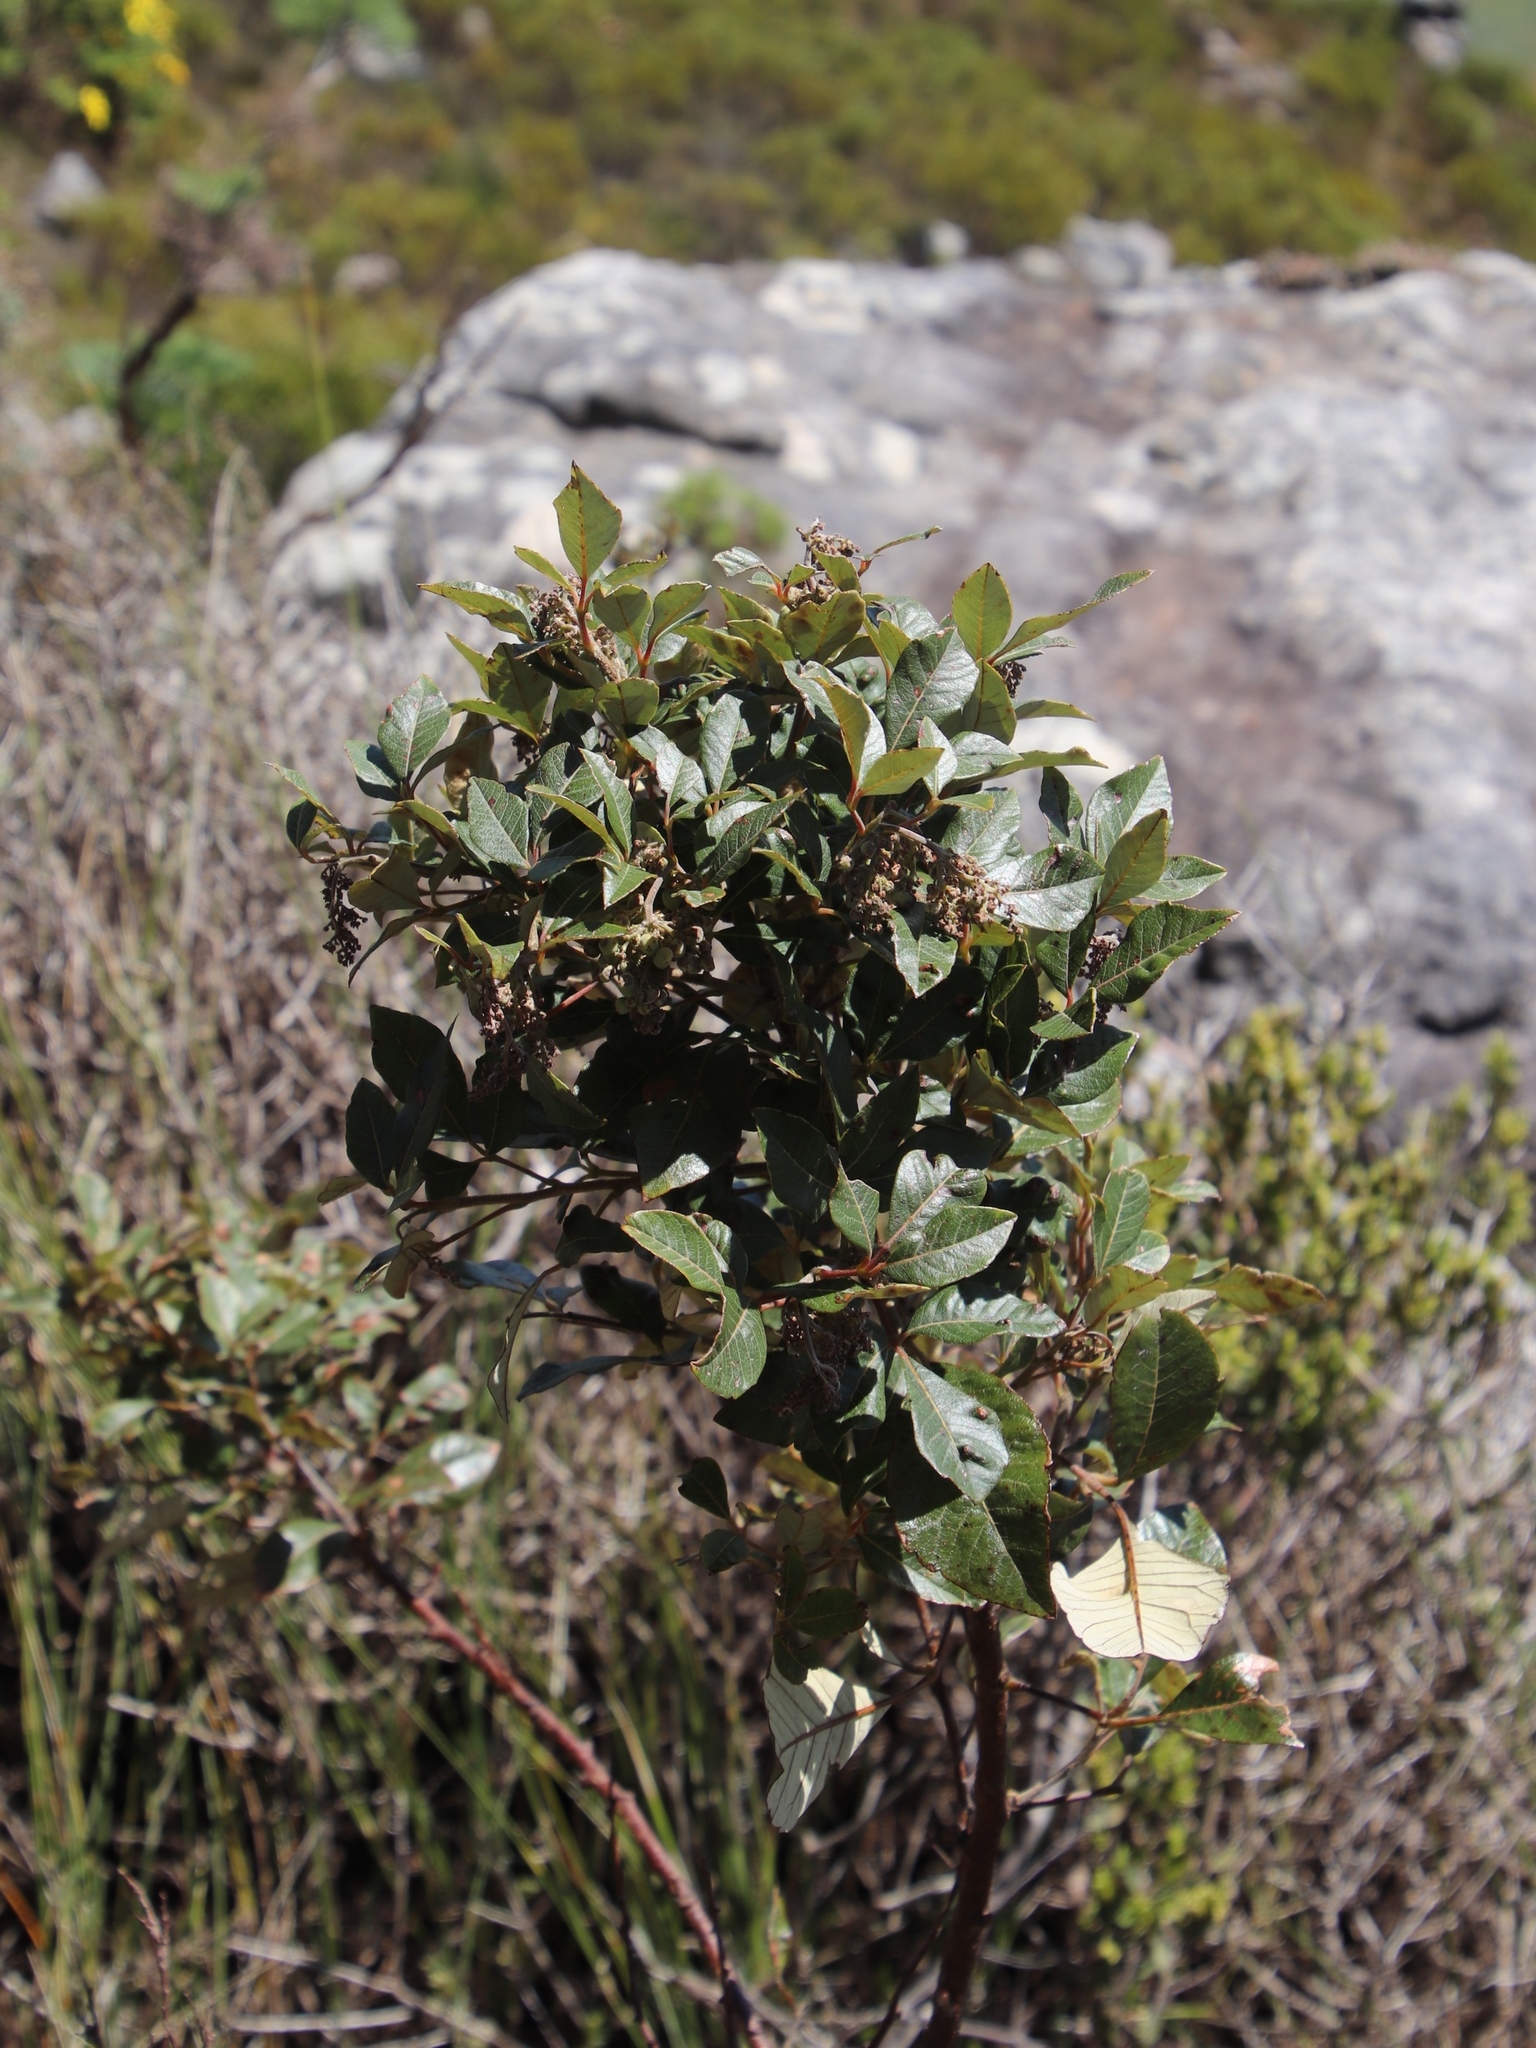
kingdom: Plantae
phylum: Tracheophyta
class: Magnoliopsida
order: Sapindales
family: Anacardiaceae
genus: Searsia
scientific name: Searsia tomentosa
